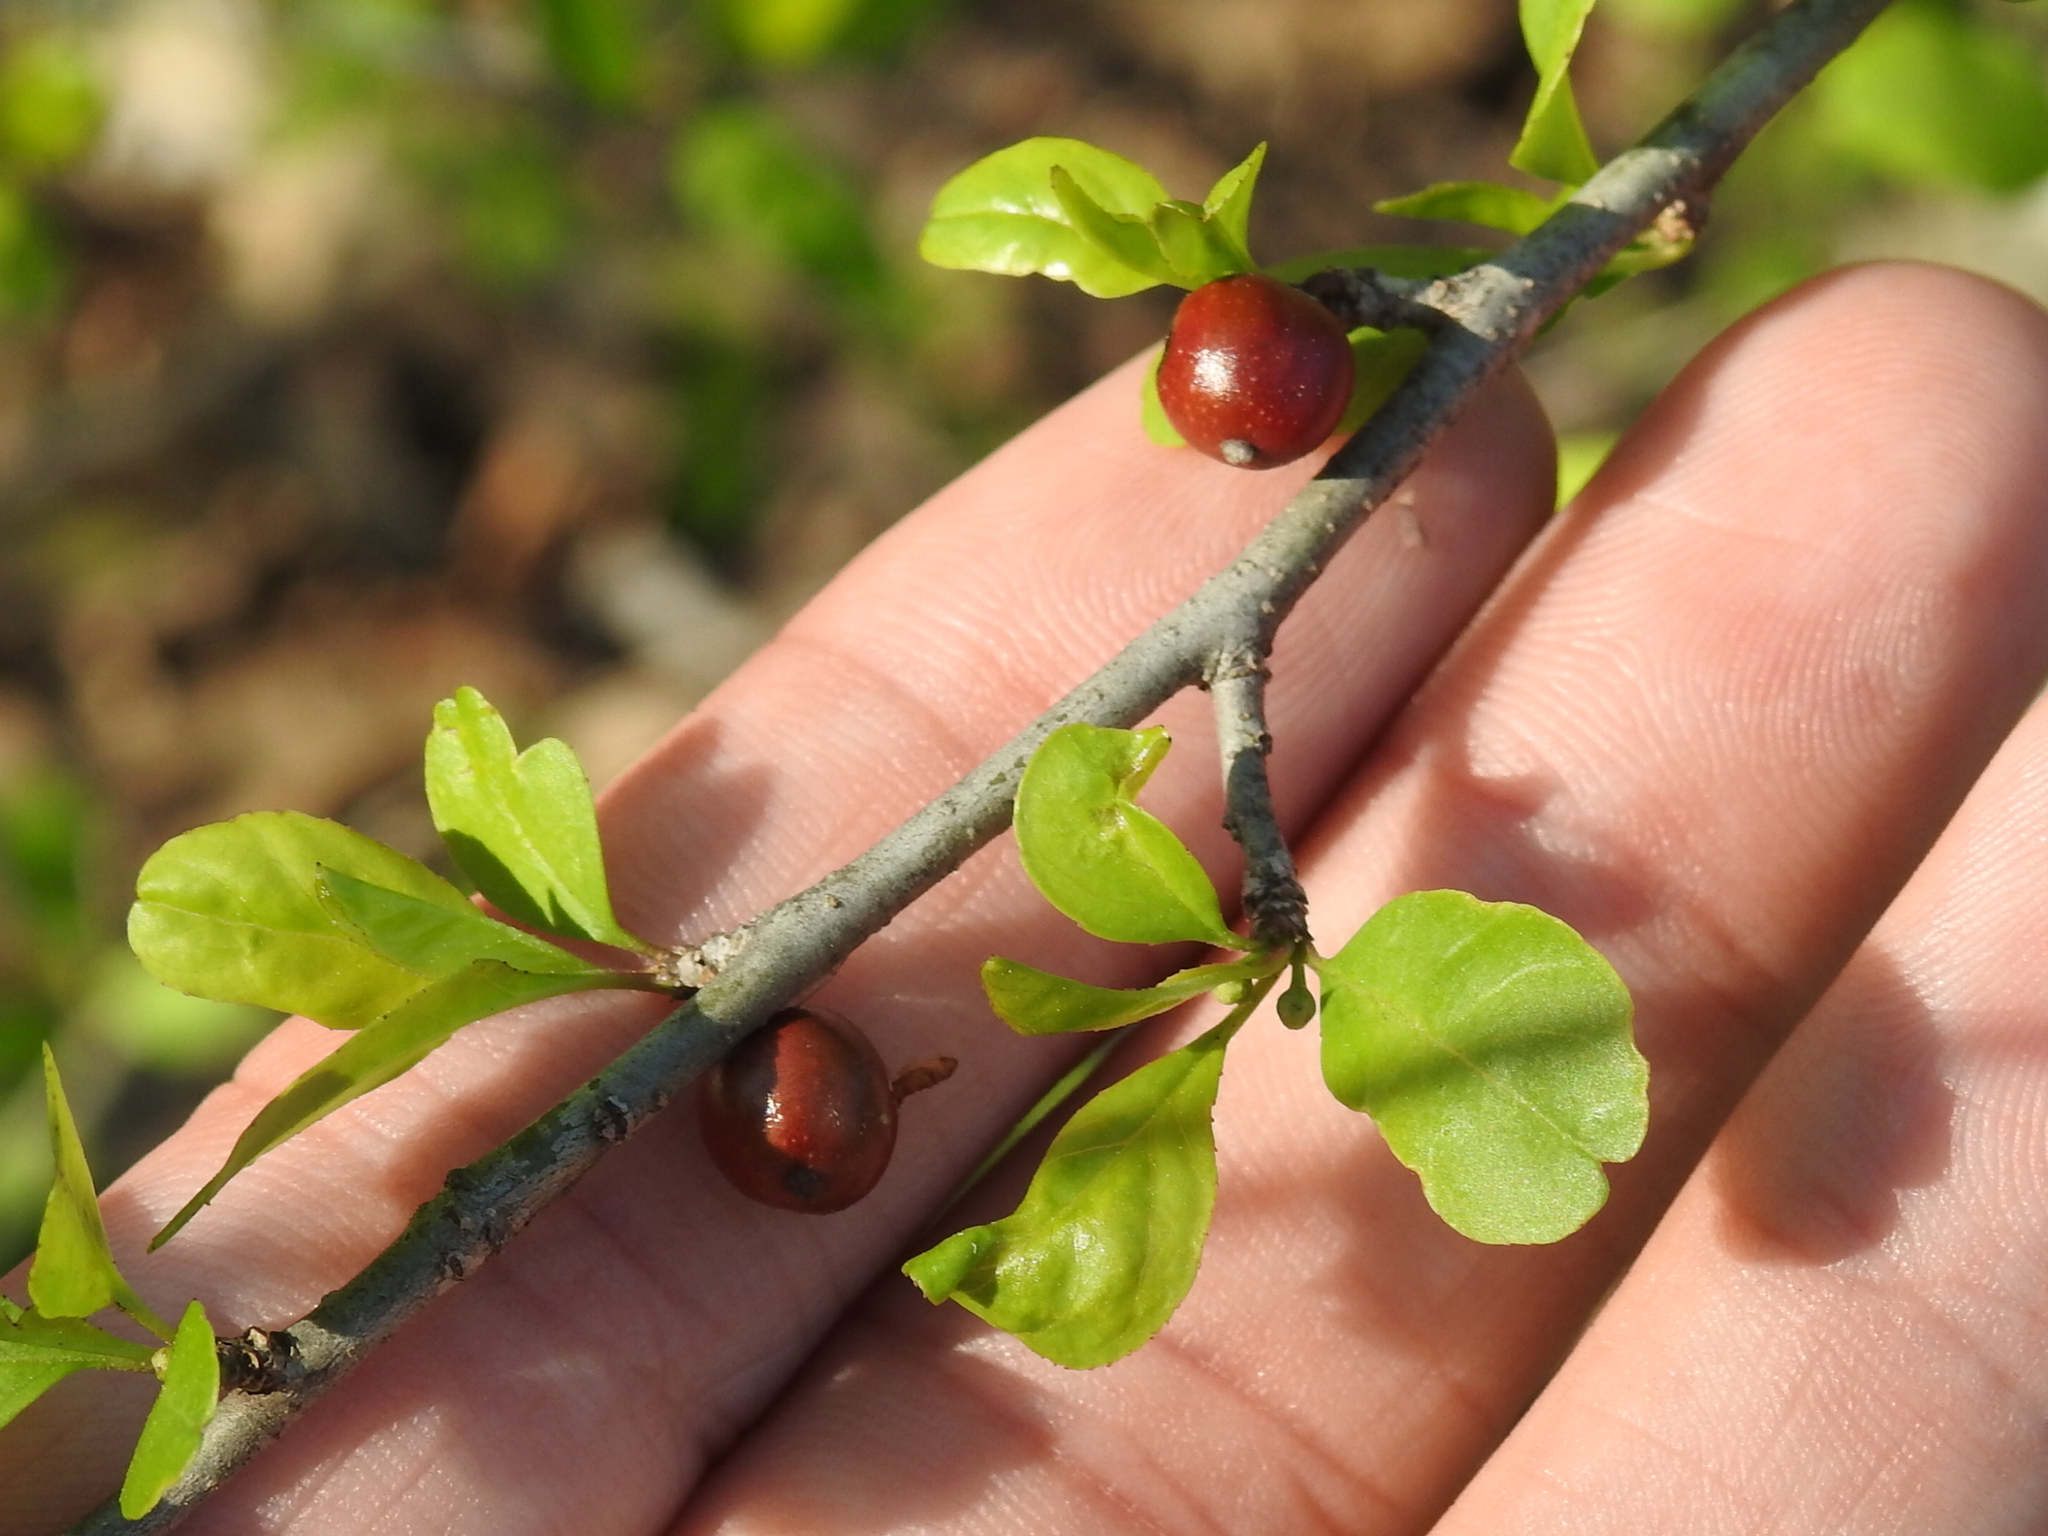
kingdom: Plantae
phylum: Tracheophyta
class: Magnoliopsida
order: Aquifoliales
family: Aquifoliaceae
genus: Ilex
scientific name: Ilex decidua
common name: Possum-haw
